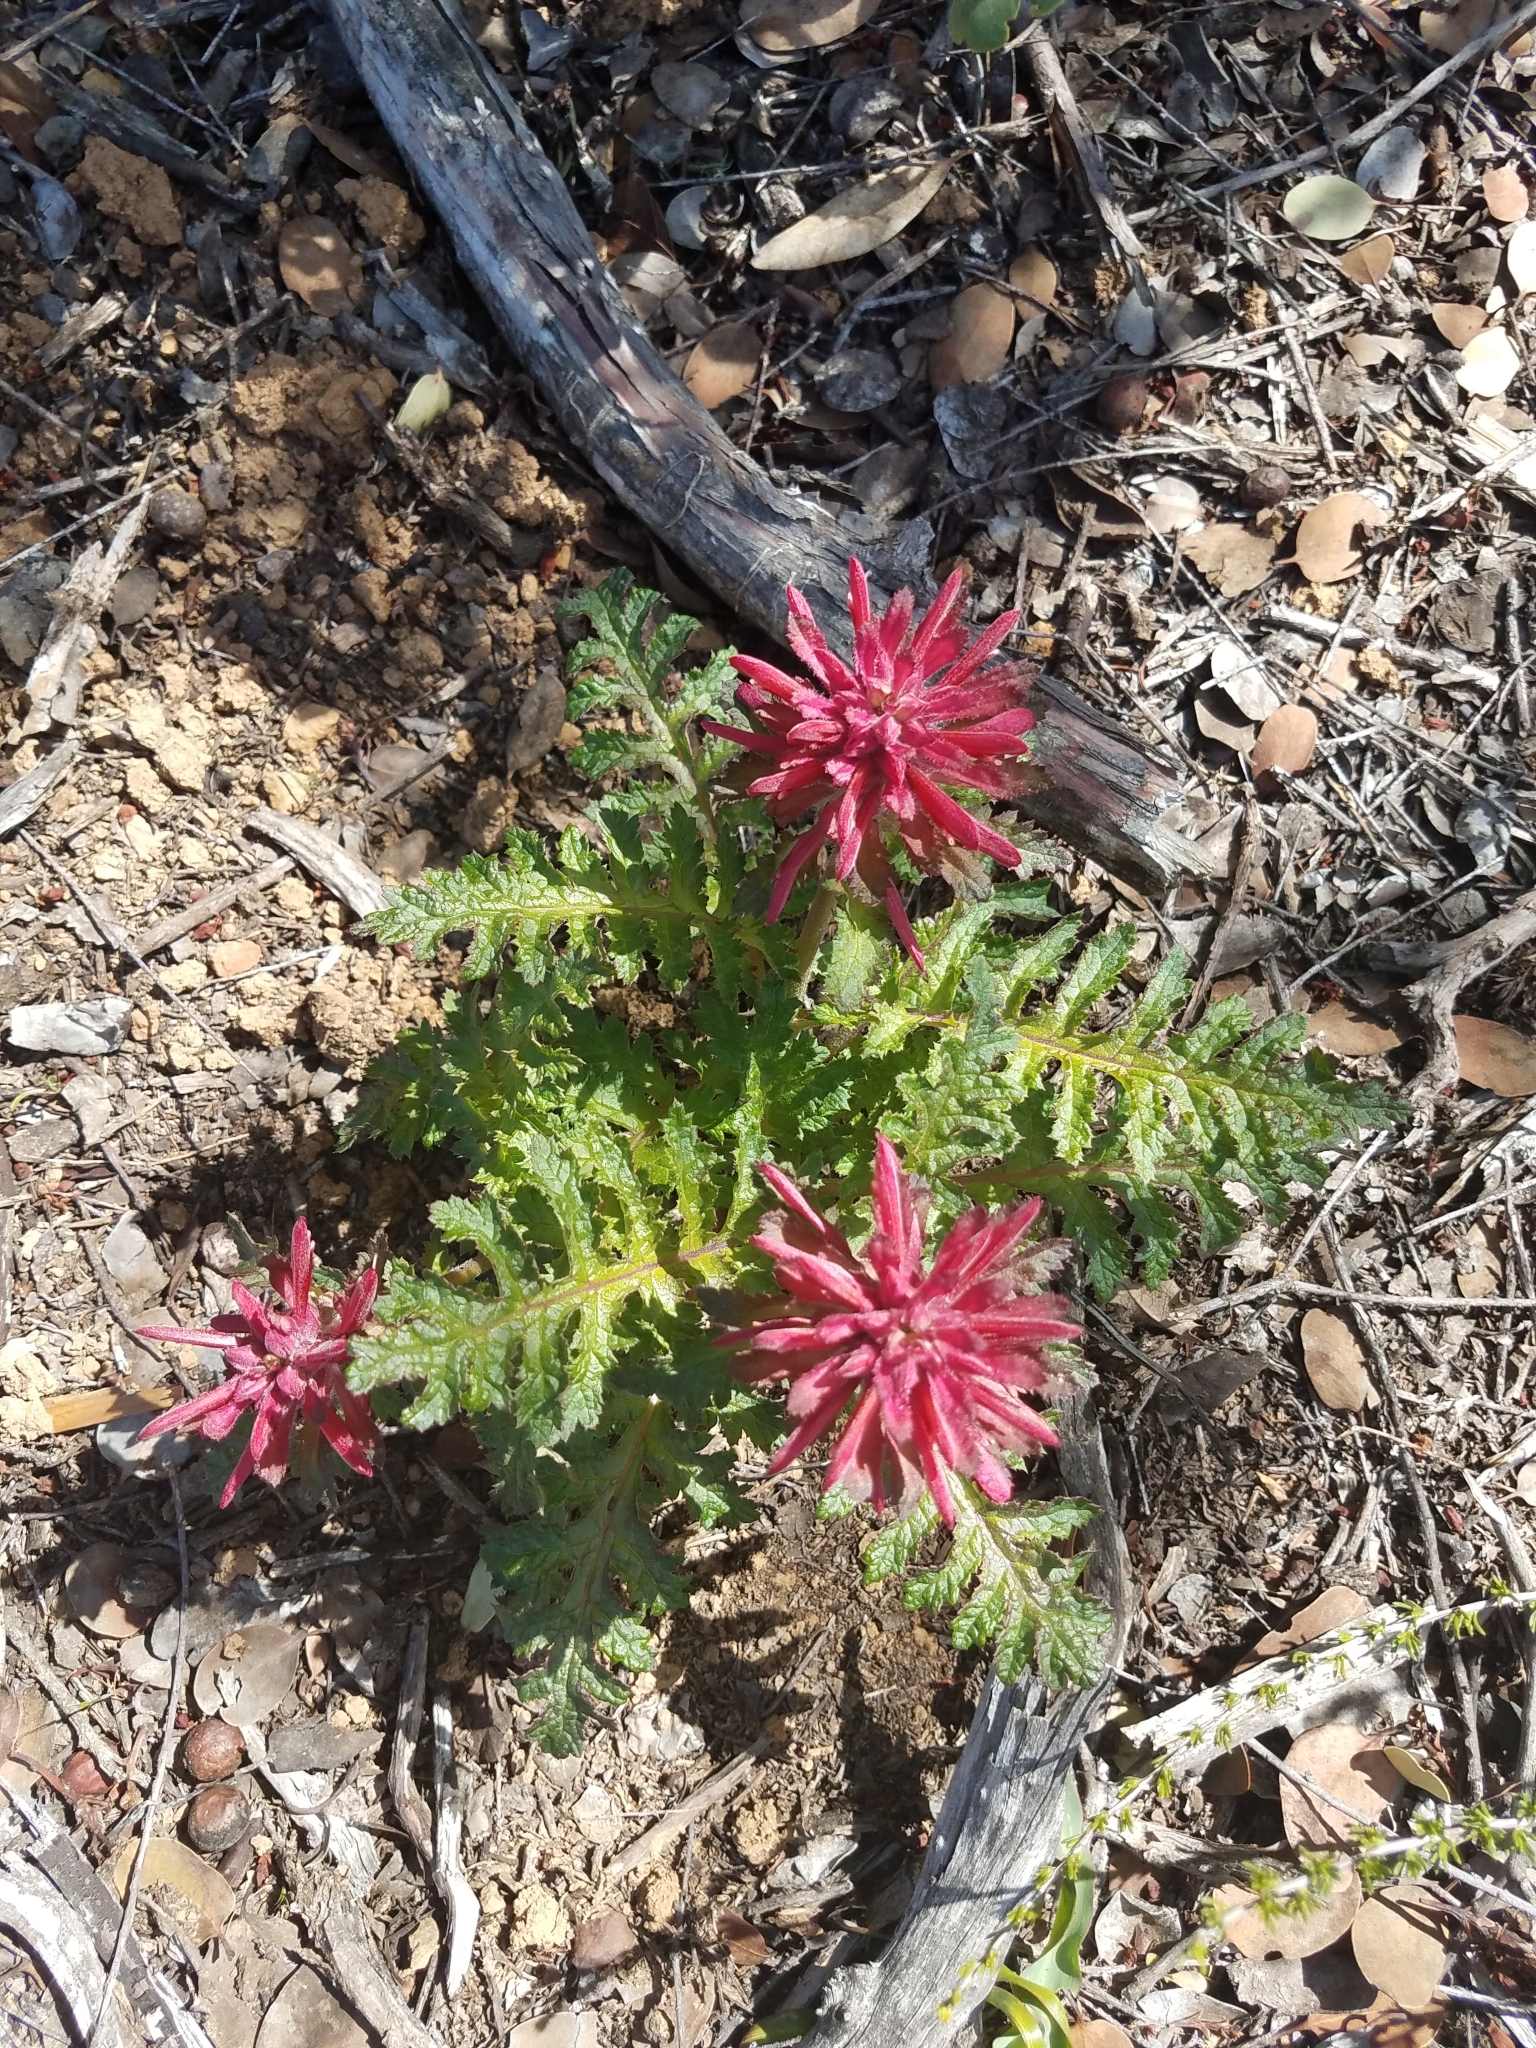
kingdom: Plantae
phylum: Tracheophyta
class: Magnoliopsida
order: Lamiales
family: Orobanchaceae
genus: Pedicularis
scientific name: Pedicularis densiflora
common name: Indian warrior
